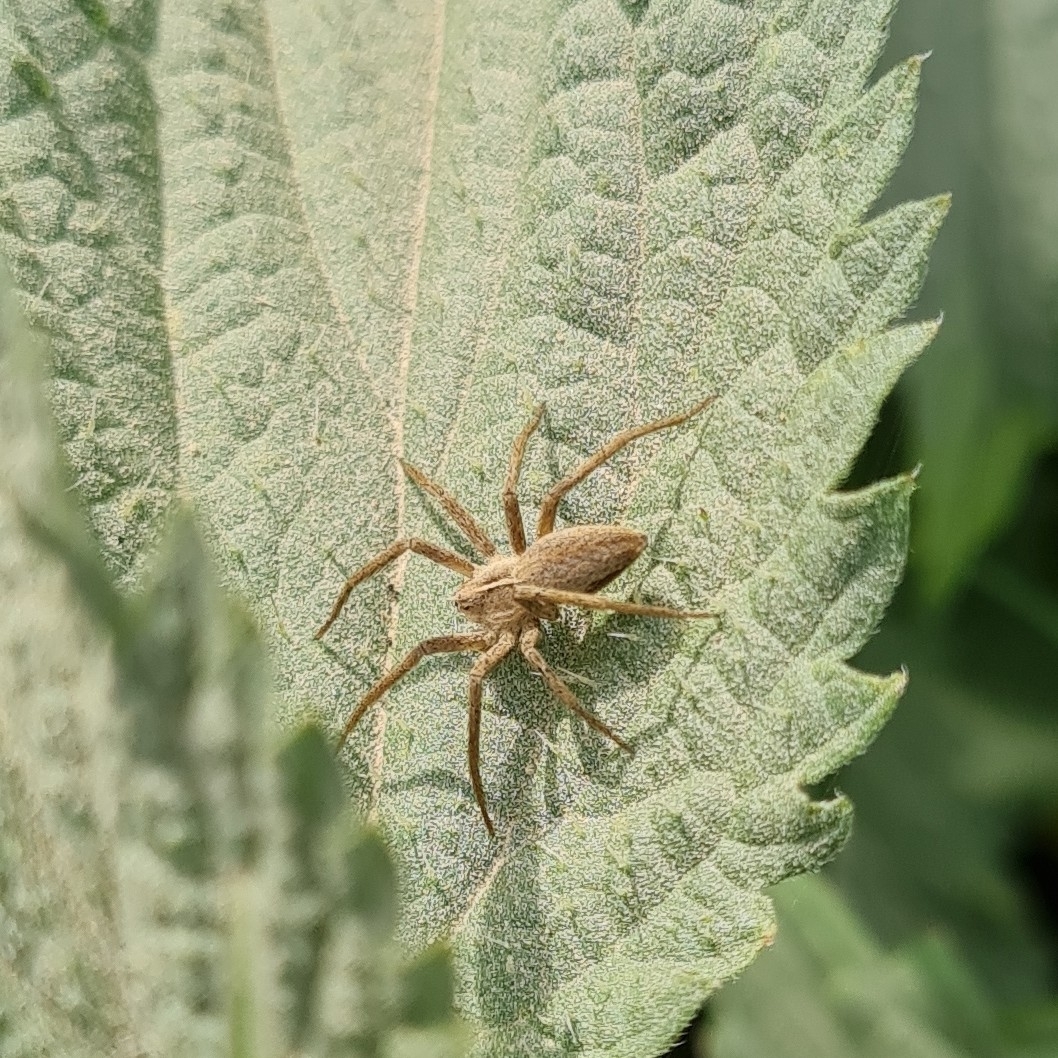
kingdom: Animalia
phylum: Arthropoda
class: Arachnida
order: Araneae
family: Pisauridae
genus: Pisaura
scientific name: Pisaura mirabilis
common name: Tent spider
